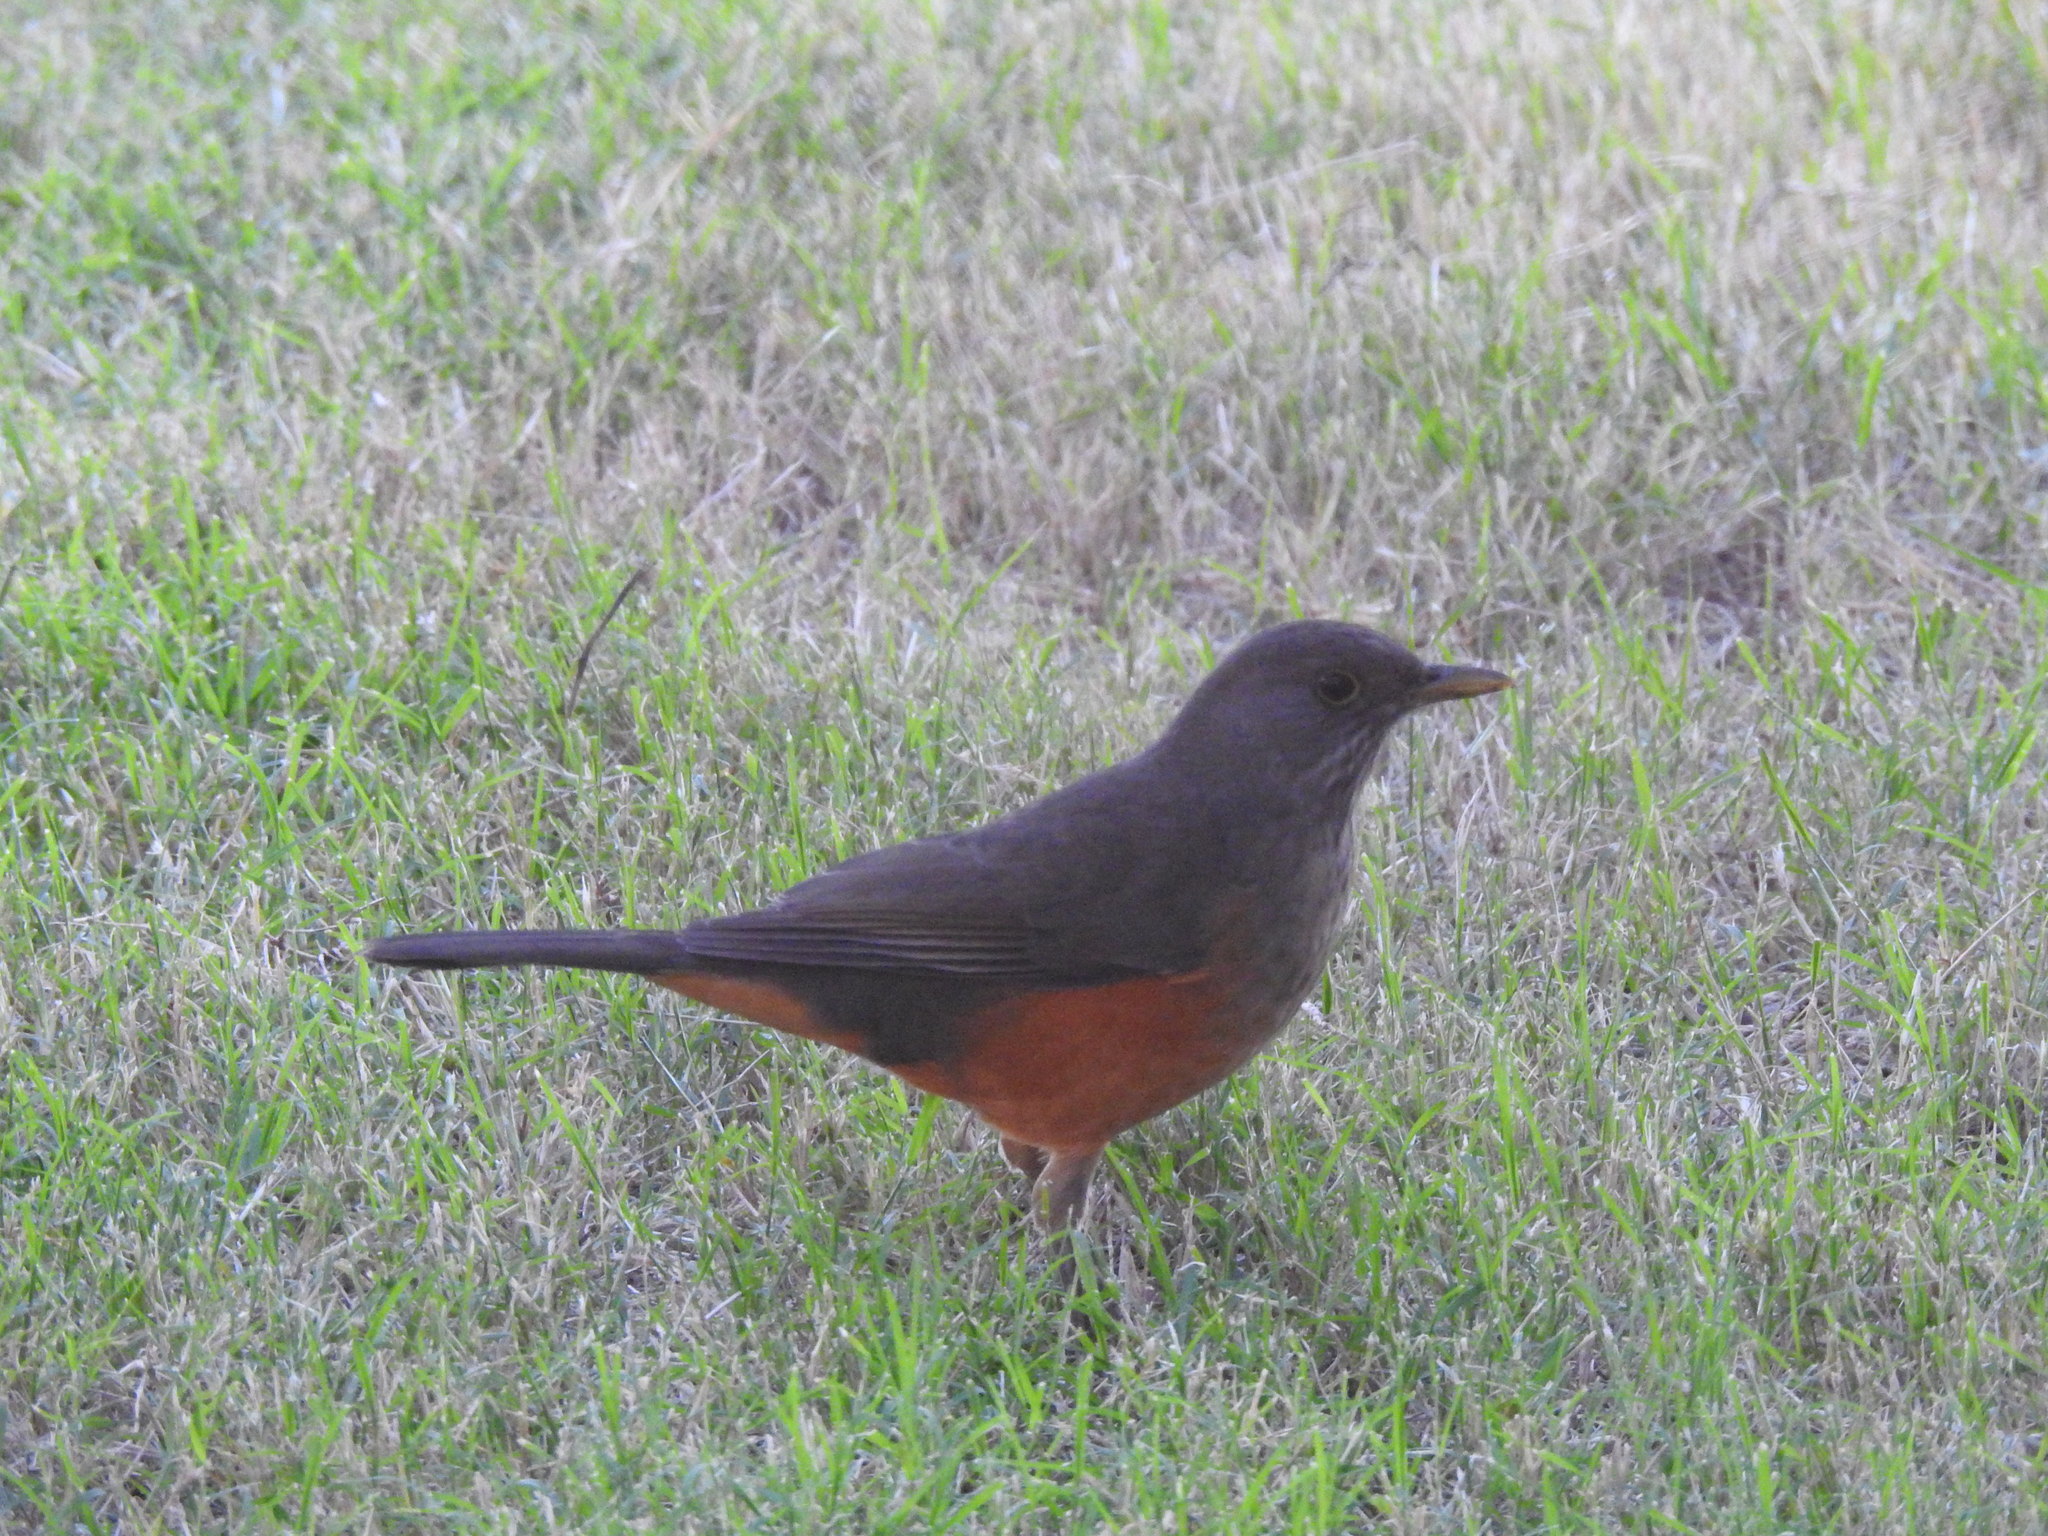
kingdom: Animalia
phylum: Chordata
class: Aves
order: Passeriformes
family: Turdidae
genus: Turdus
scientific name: Turdus rufiventris
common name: Rufous-bellied thrush
